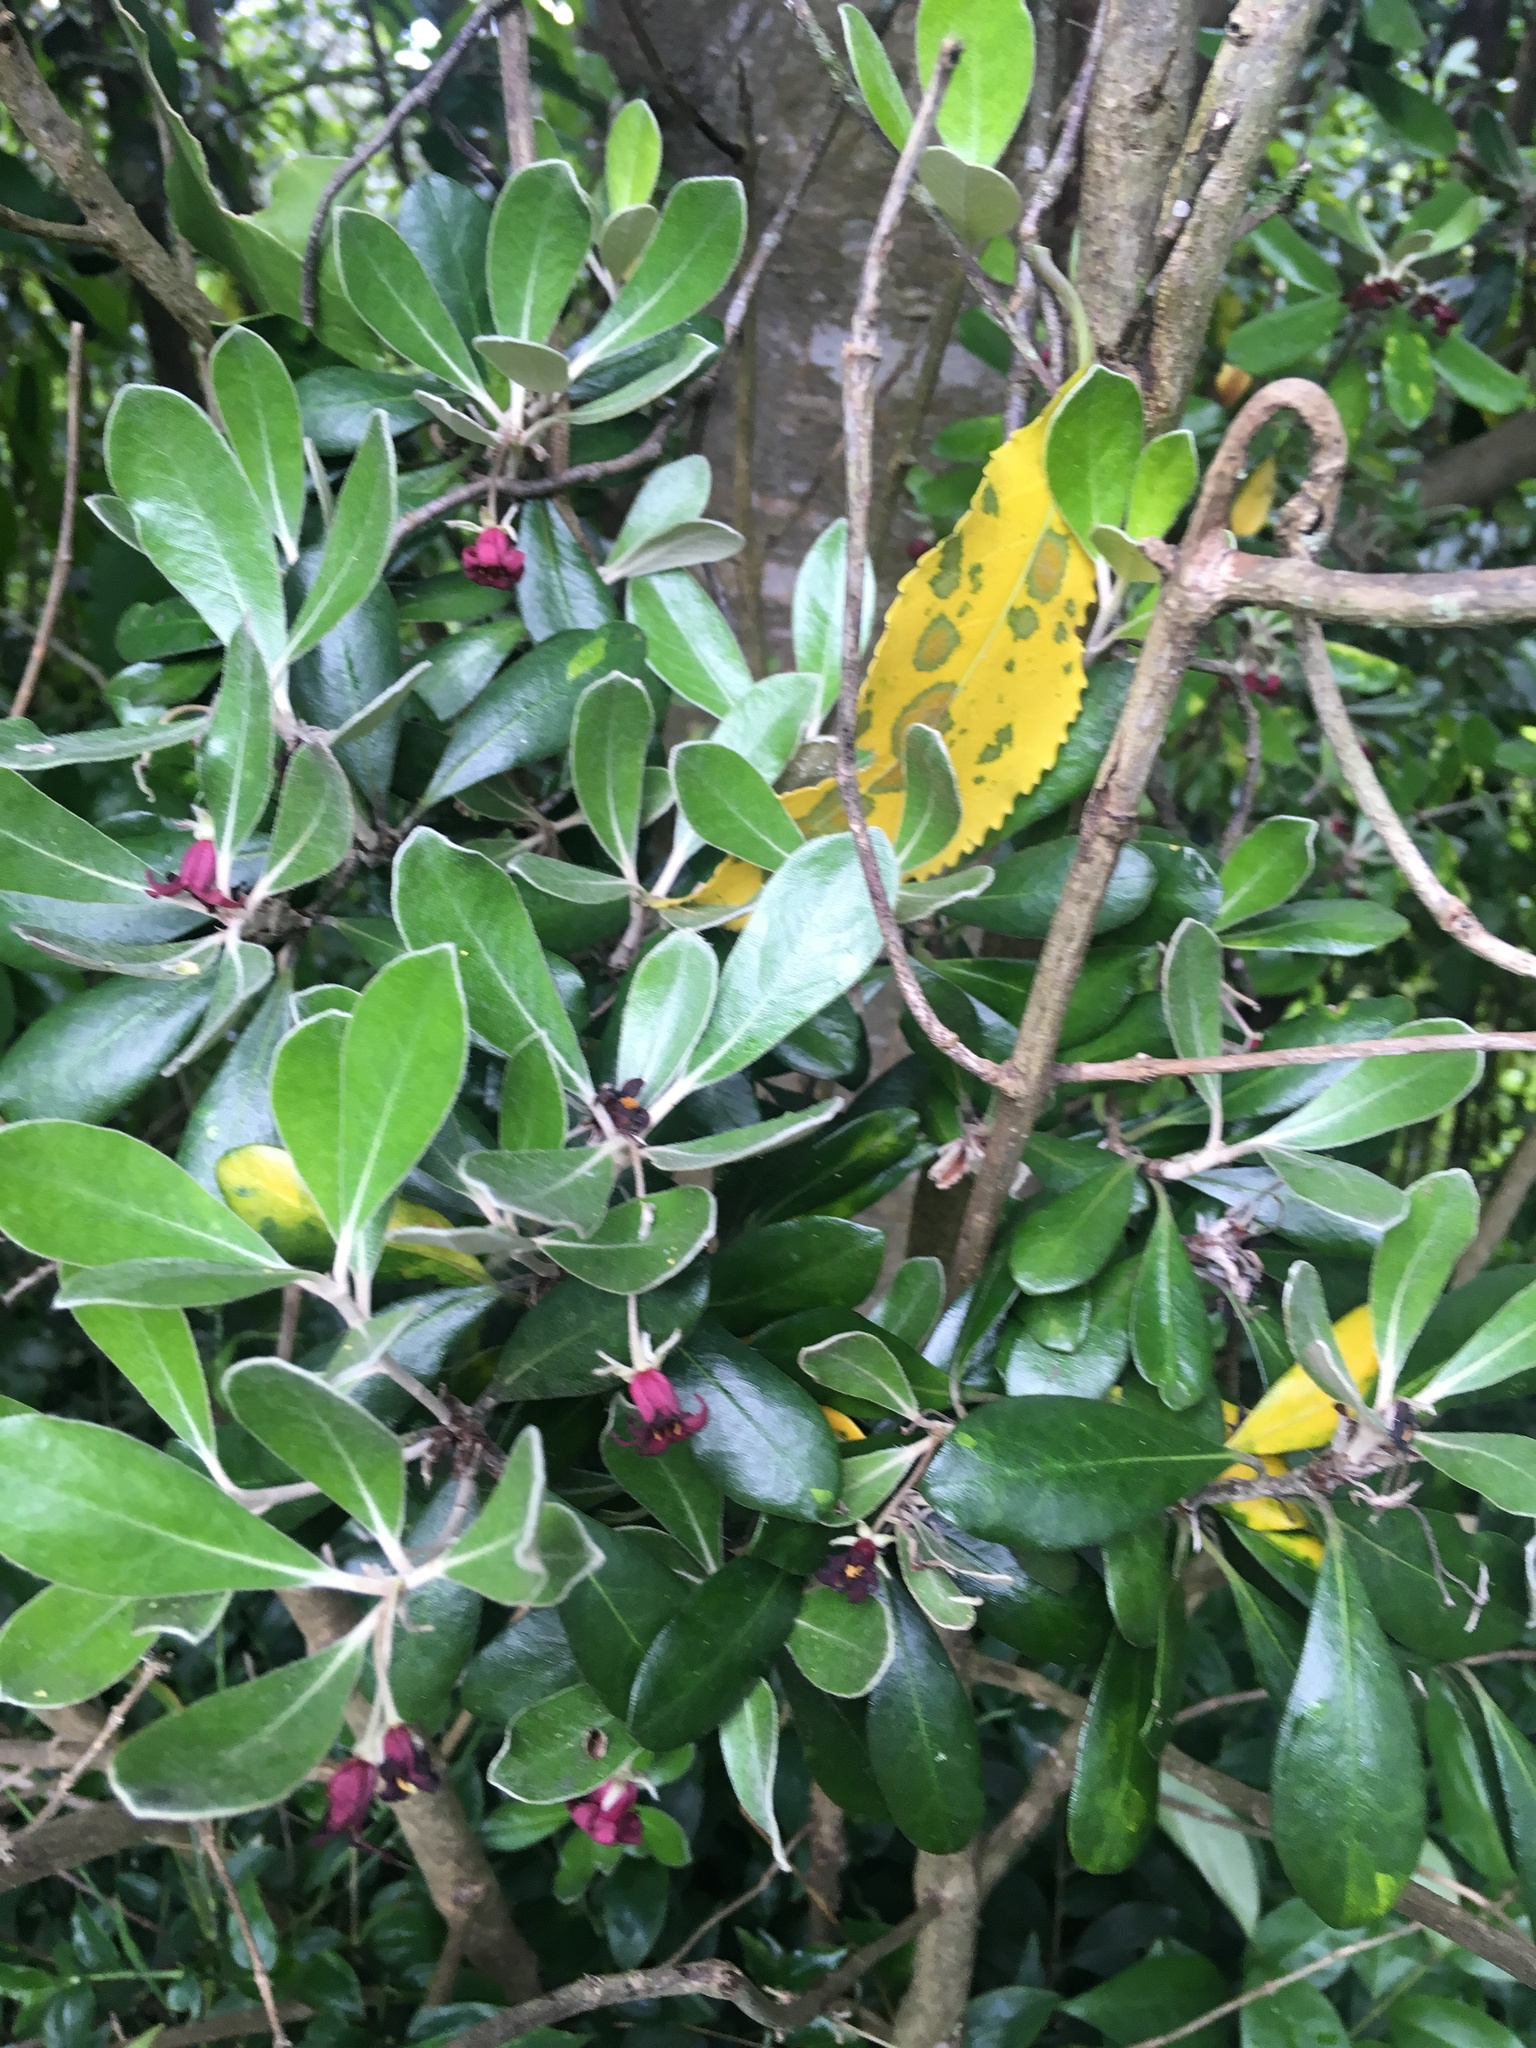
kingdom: Plantae
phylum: Tracheophyta
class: Magnoliopsida
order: Apiales
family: Pittosporaceae
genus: Pittosporum
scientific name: Pittosporum crassifolium
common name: Karo
